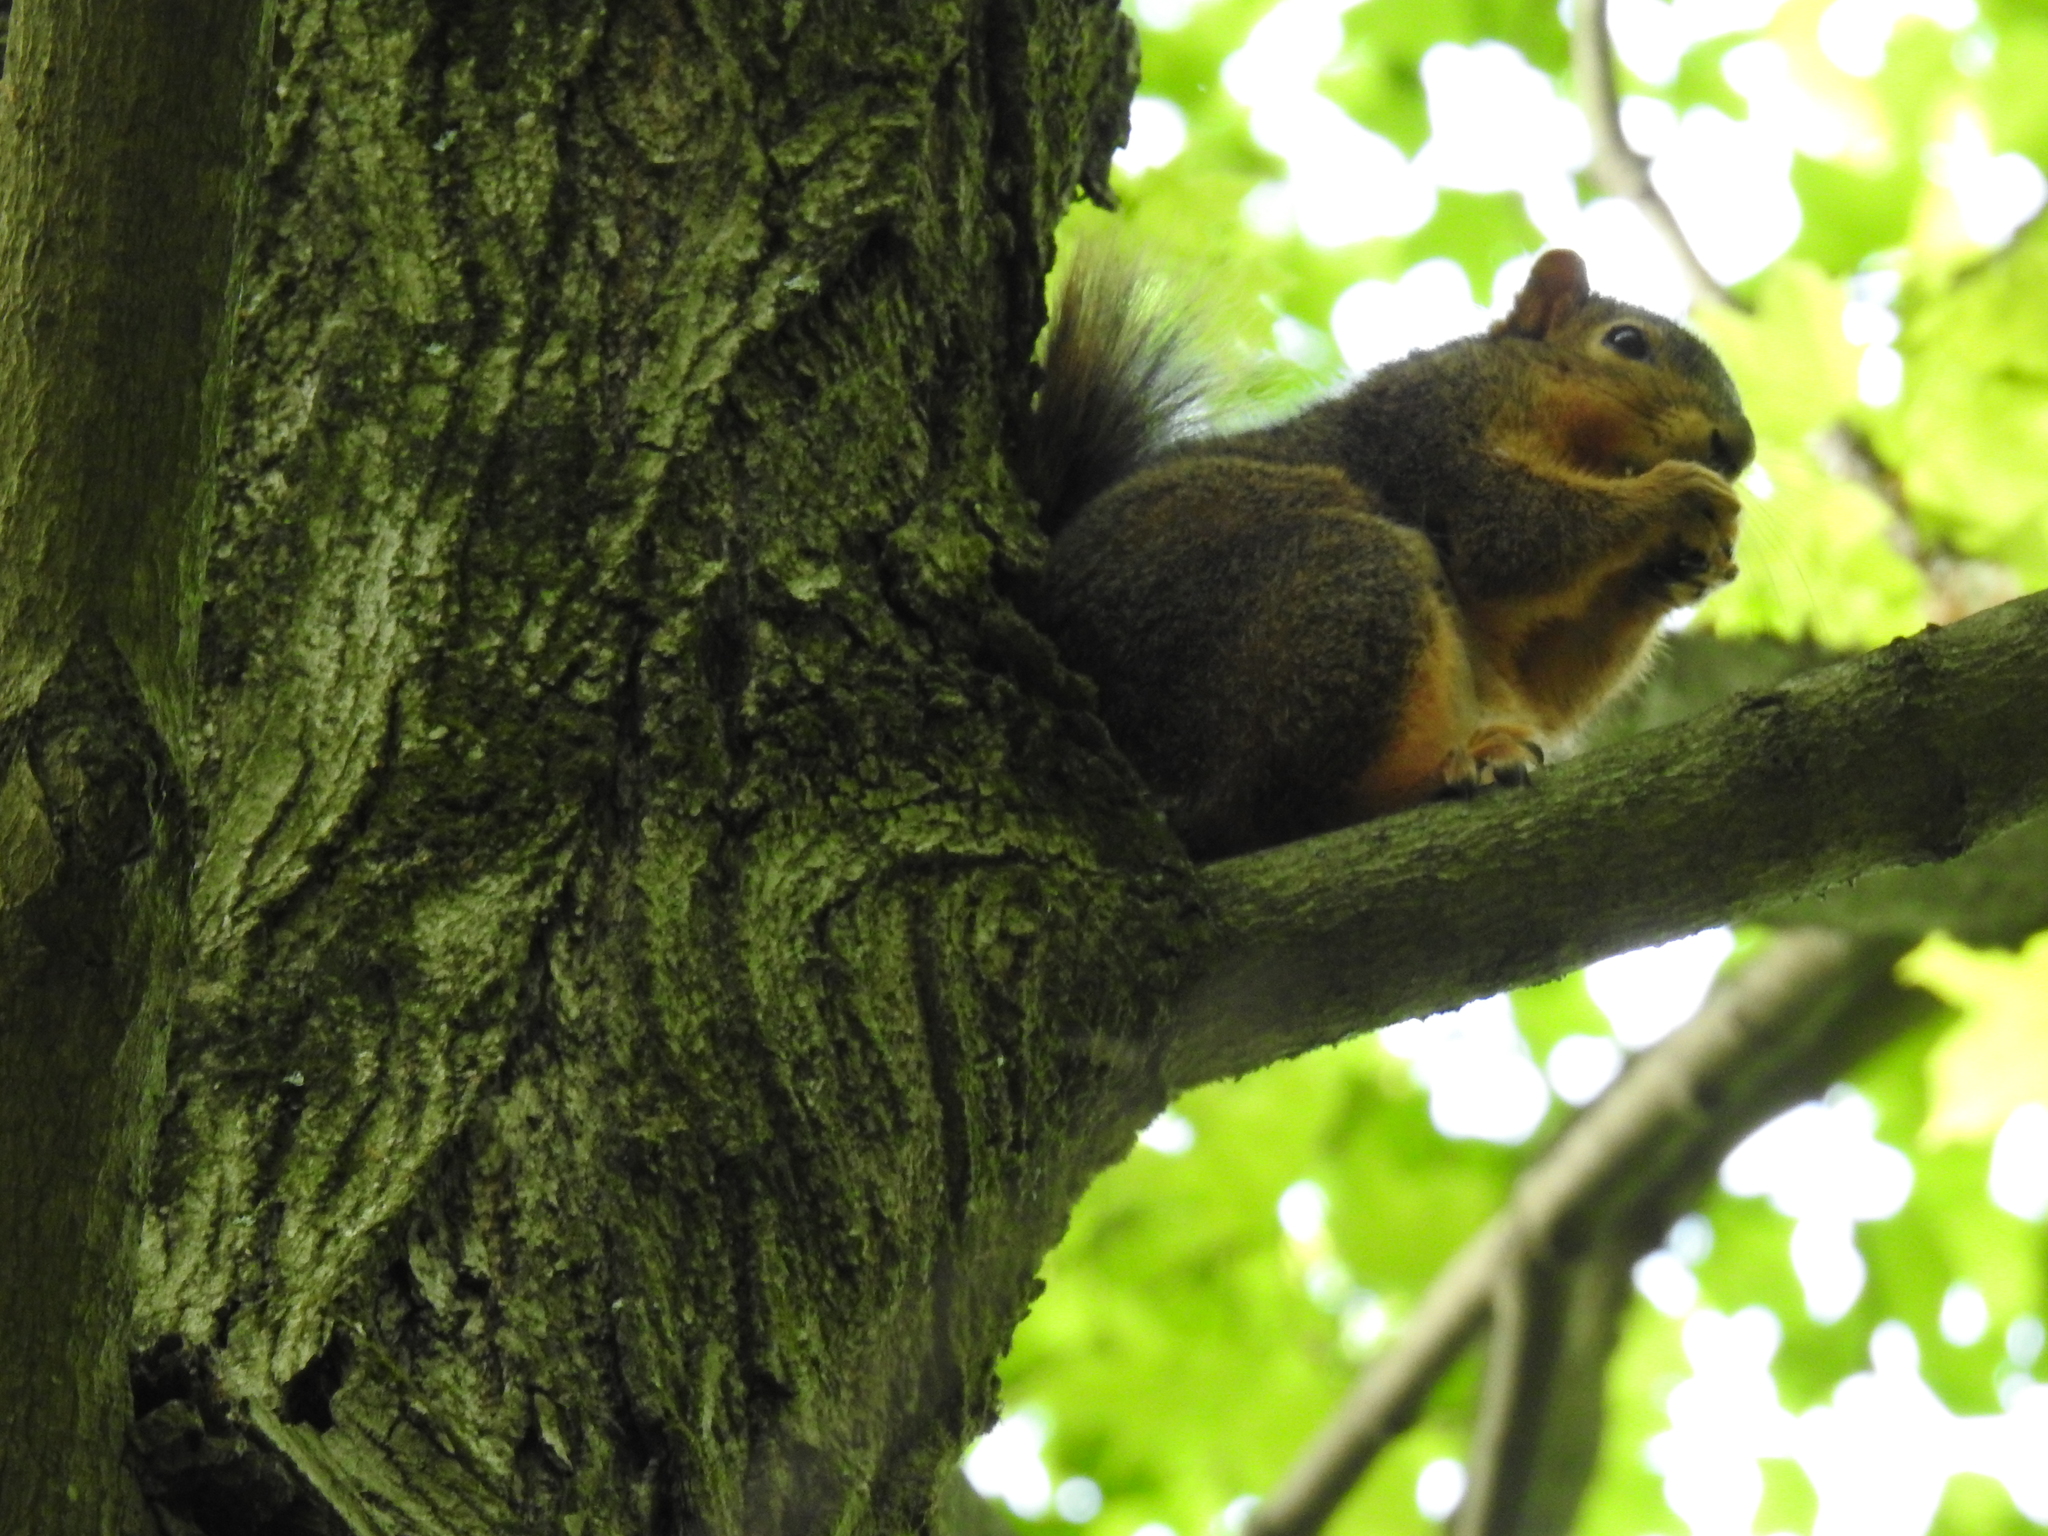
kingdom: Animalia
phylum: Chordata
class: Mammalia
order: Rodentia
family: Sciuridae
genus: Sciurus
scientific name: Sciurus niger
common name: Fox squirrel
